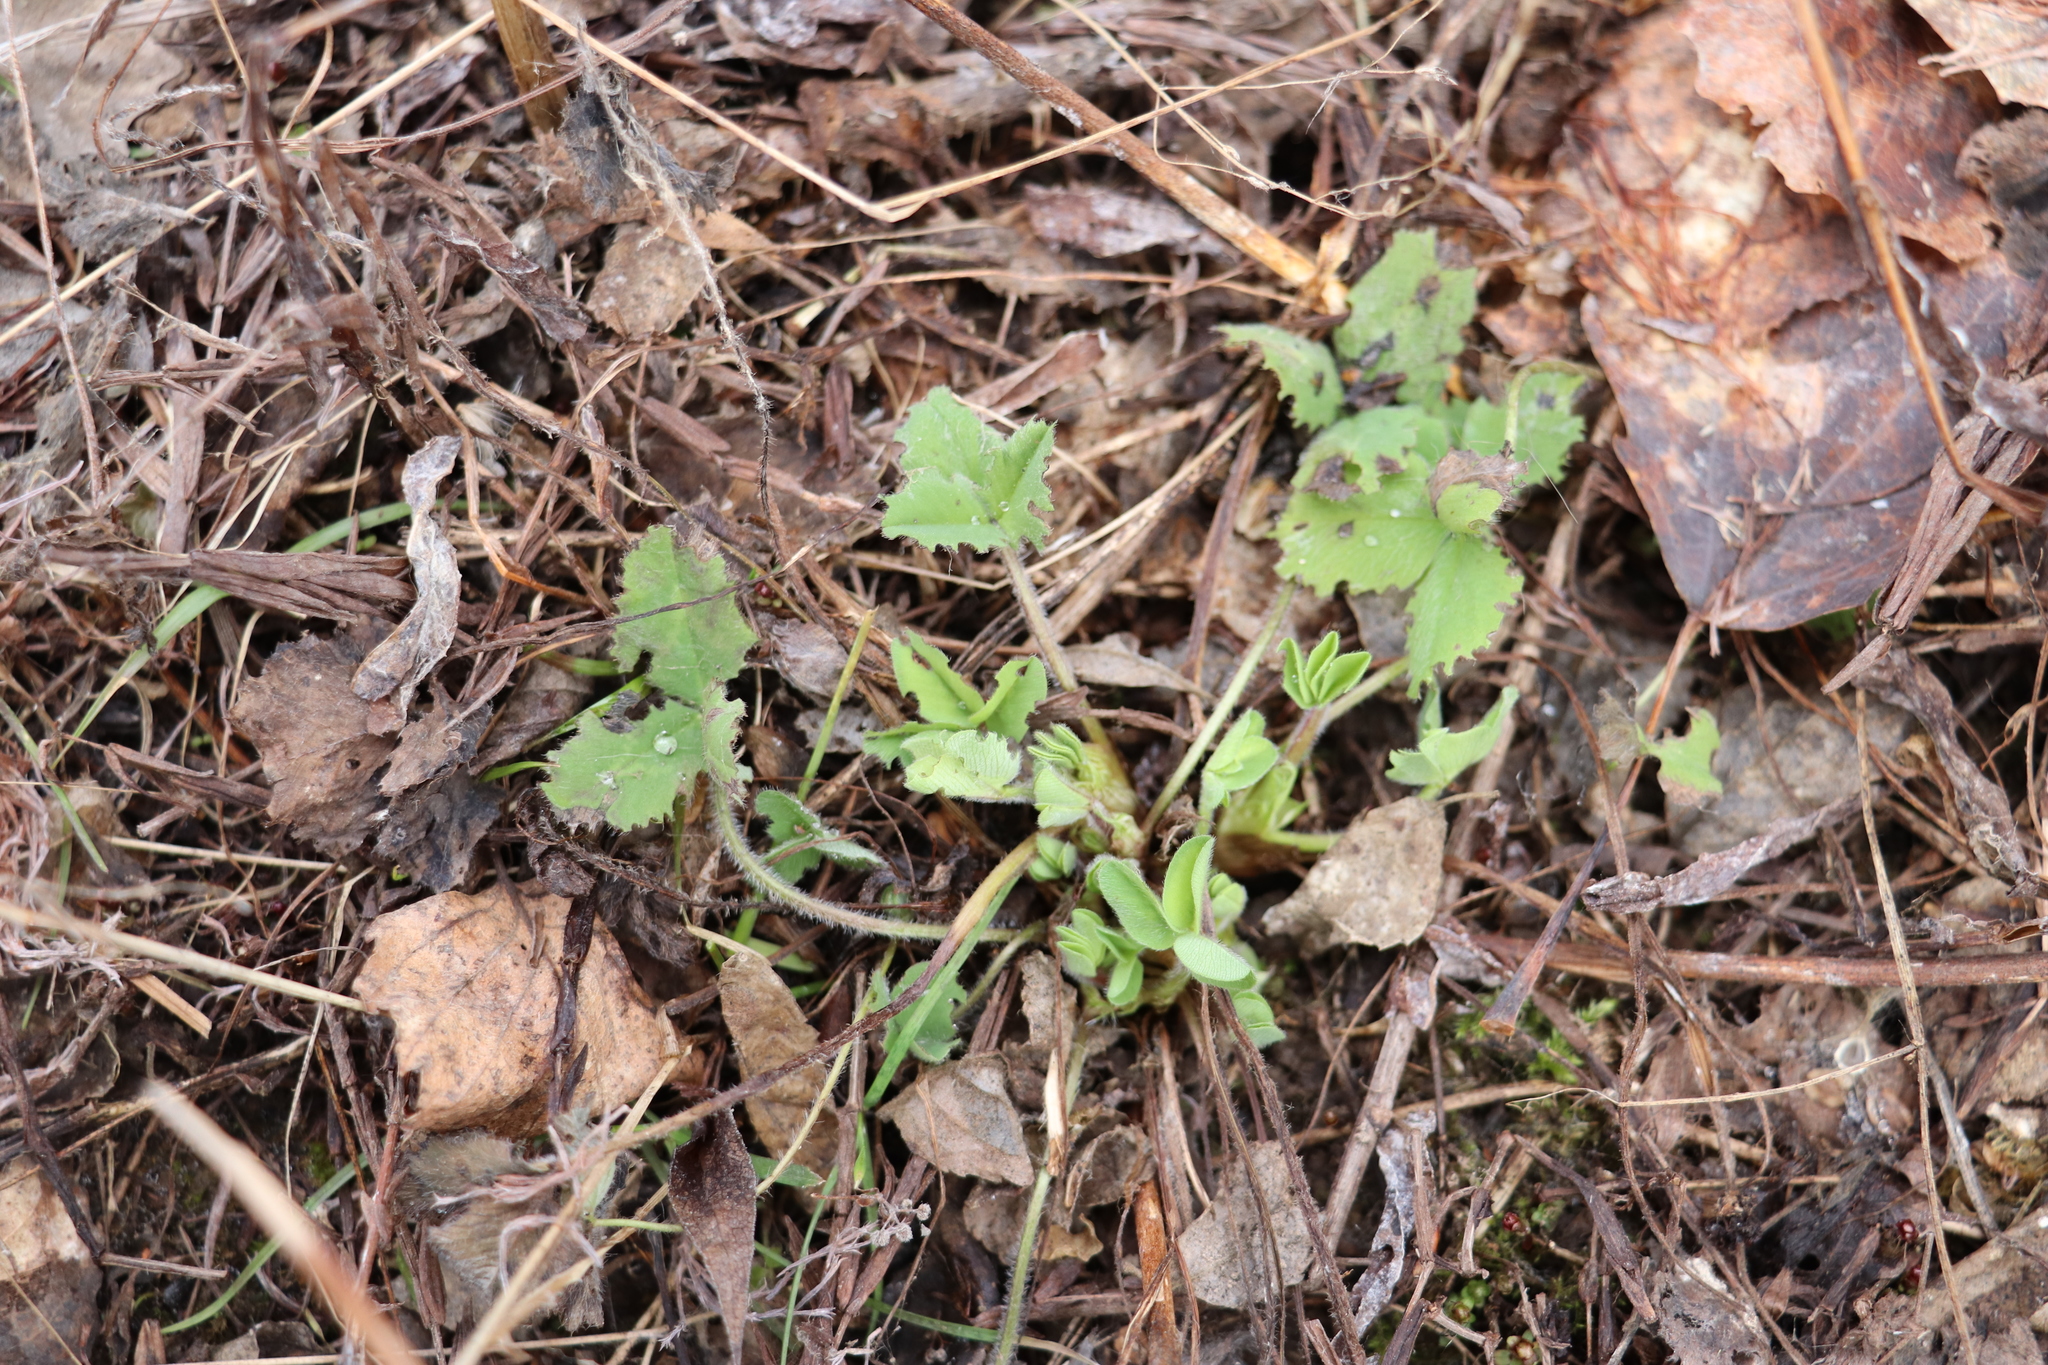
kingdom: Plantae
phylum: Tracheophyta
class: Magnoliopsida
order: Fabales
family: Fabaceae
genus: Trifolium
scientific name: Trifolium pratense
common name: Red clover
